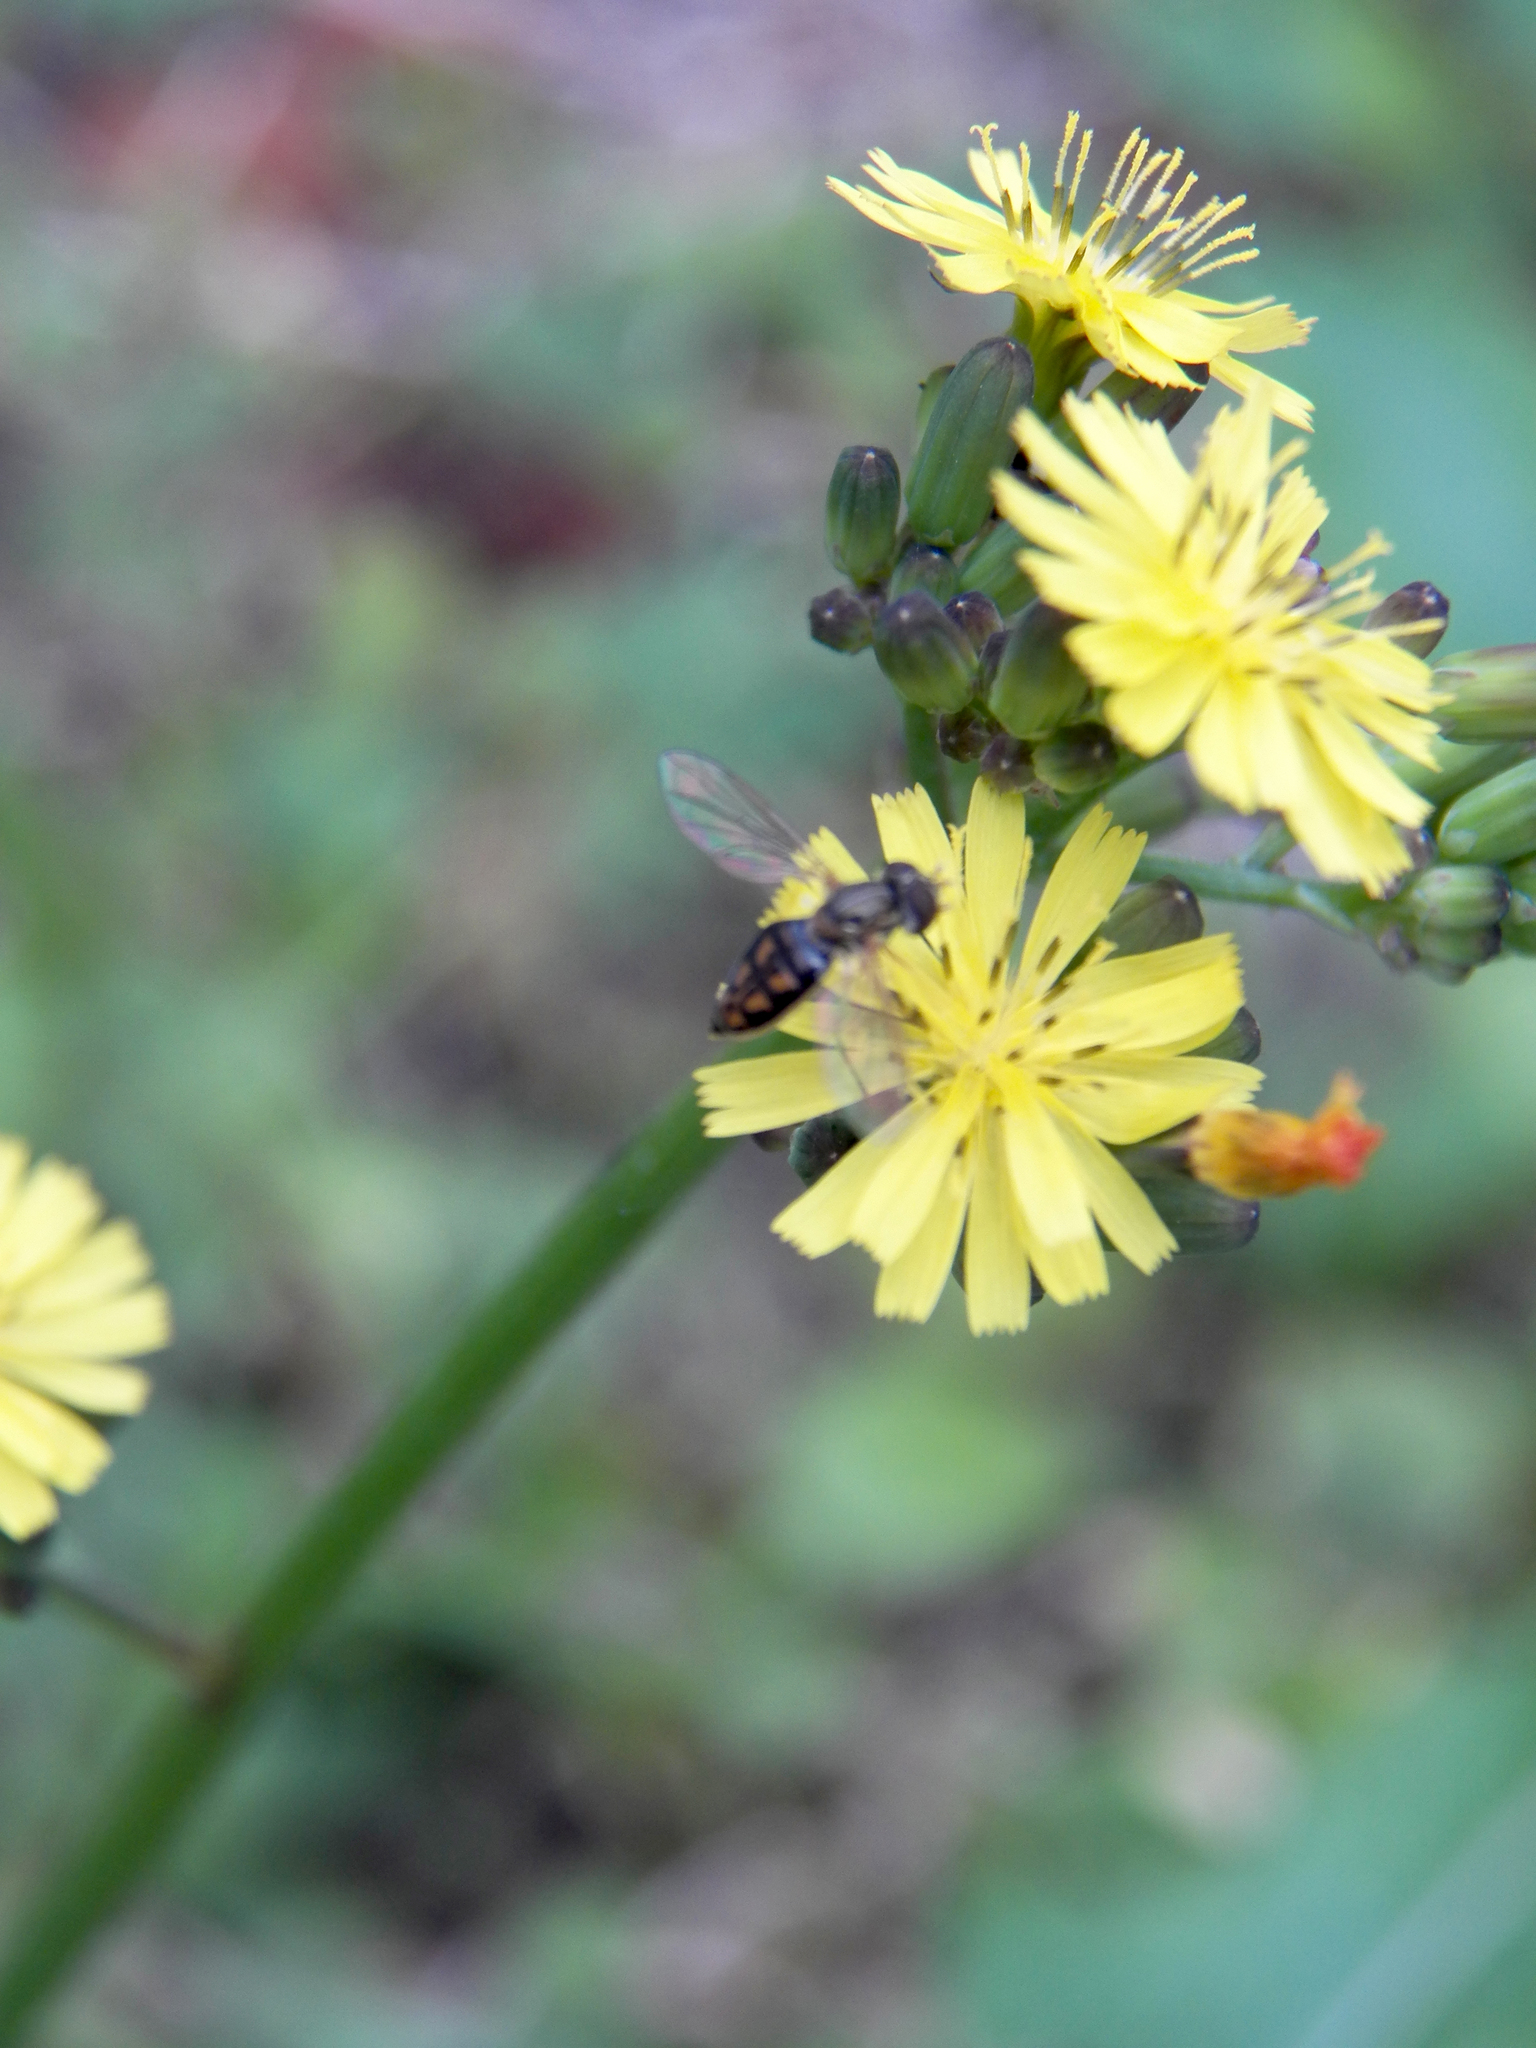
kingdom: Plantae
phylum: Tracheophyta
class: Magnoliopsida
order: Asterales
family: Asteraceae
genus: Youngia
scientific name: Youngia japonica
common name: Oriental false hawksbeard
